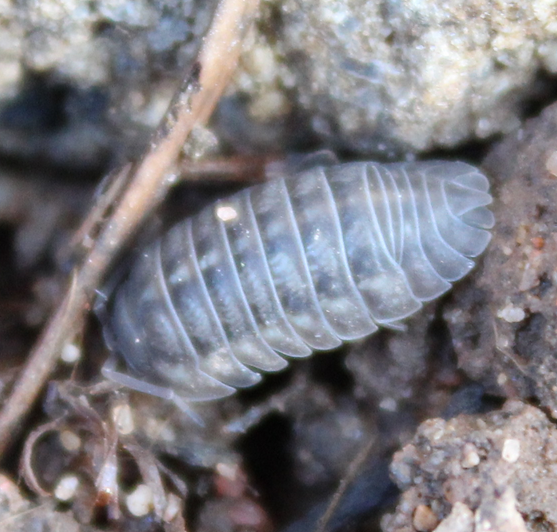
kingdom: Animalia
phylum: Arthropoda
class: Malacostraca
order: Isopoda
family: Armadillidiidae
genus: Armadillidium
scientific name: Armadillidium nasatum
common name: Isopod
